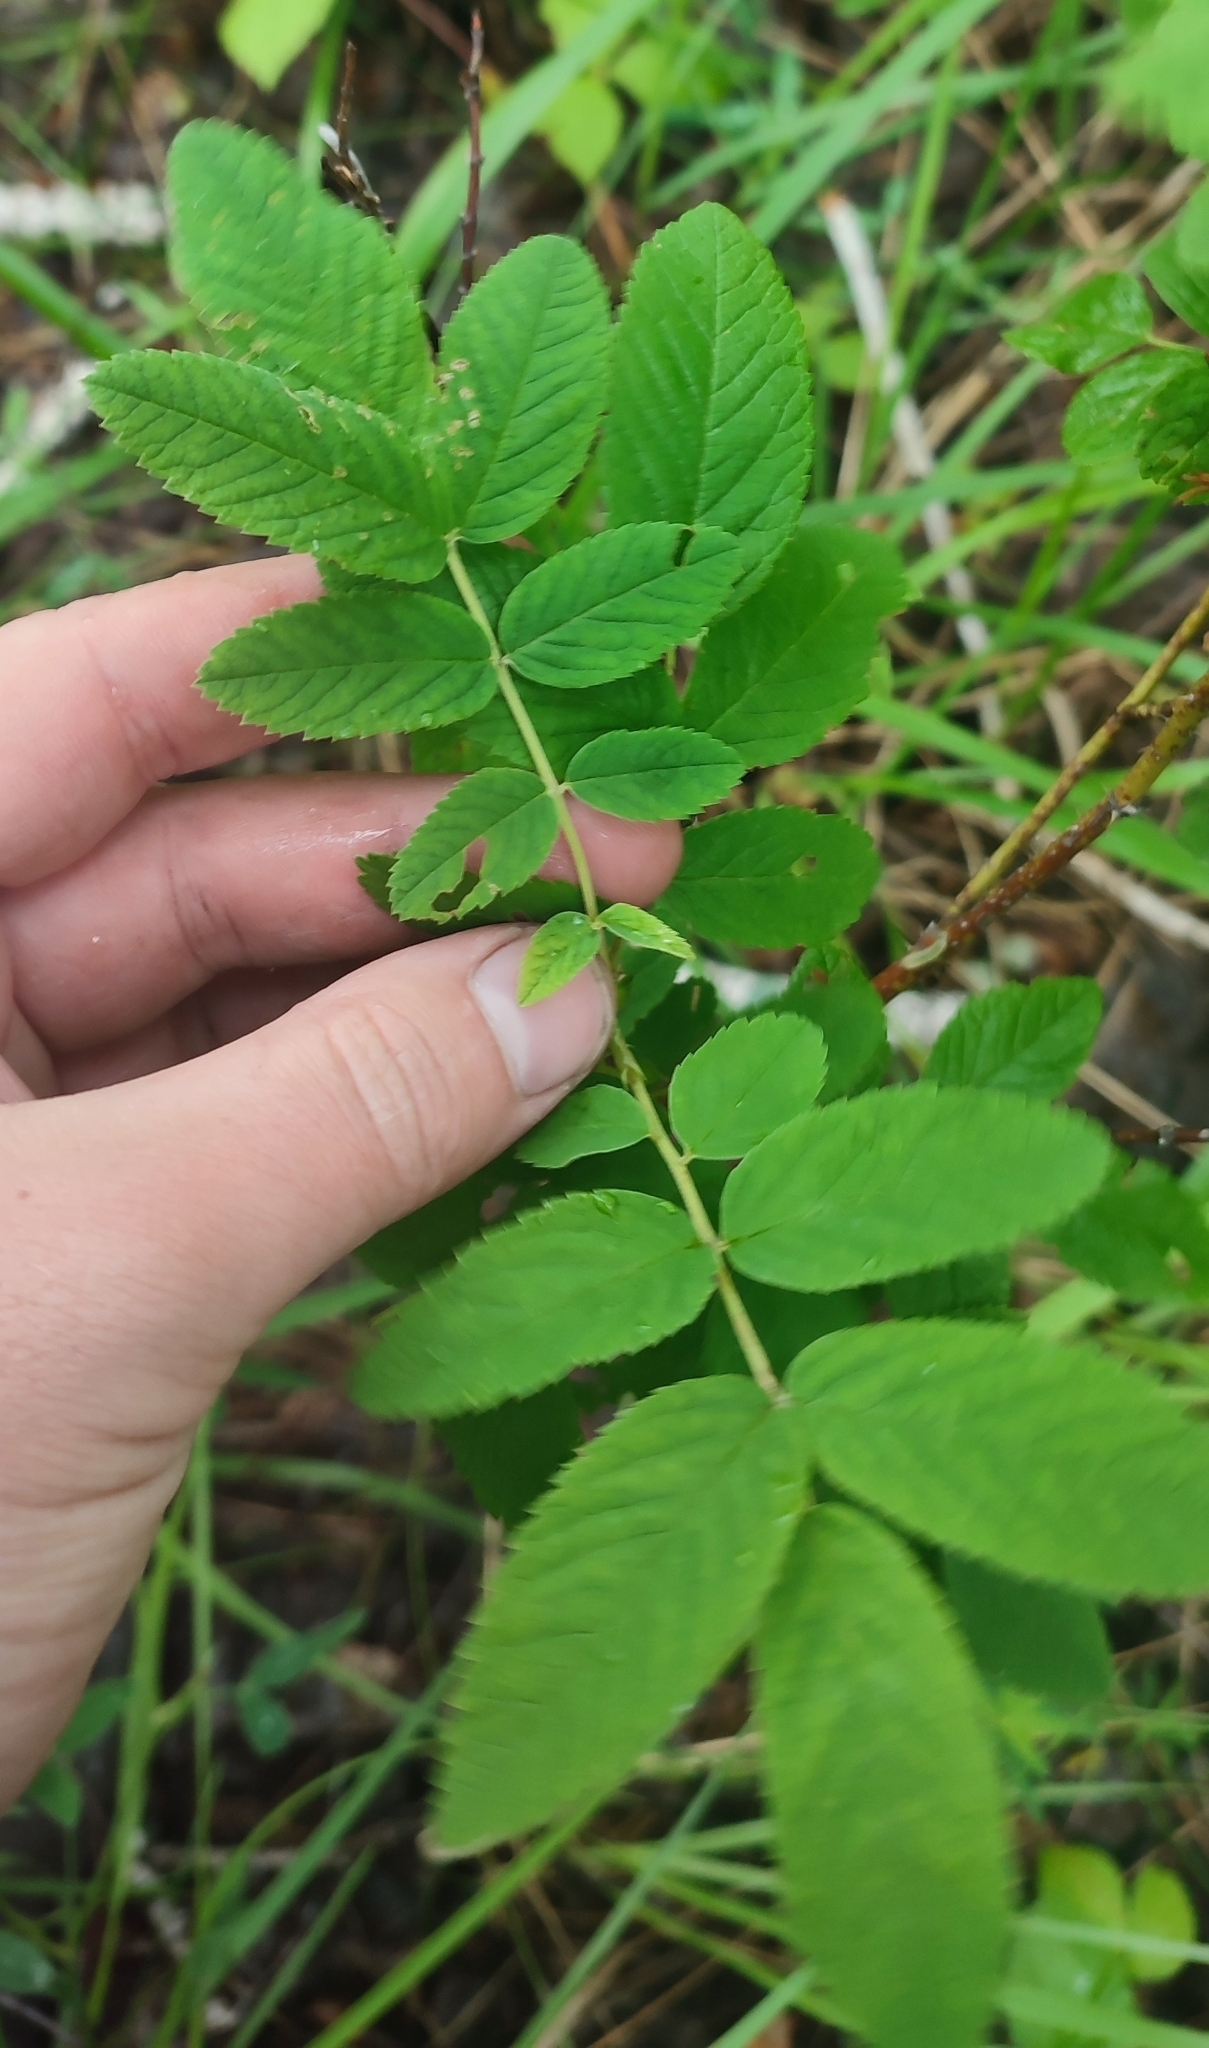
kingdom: Plantae
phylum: Tracheophyta
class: Magnoliopsida
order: Rosales
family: Rosaceae
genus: Rosa
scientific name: Rosa majalis
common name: Cinnamon rose
